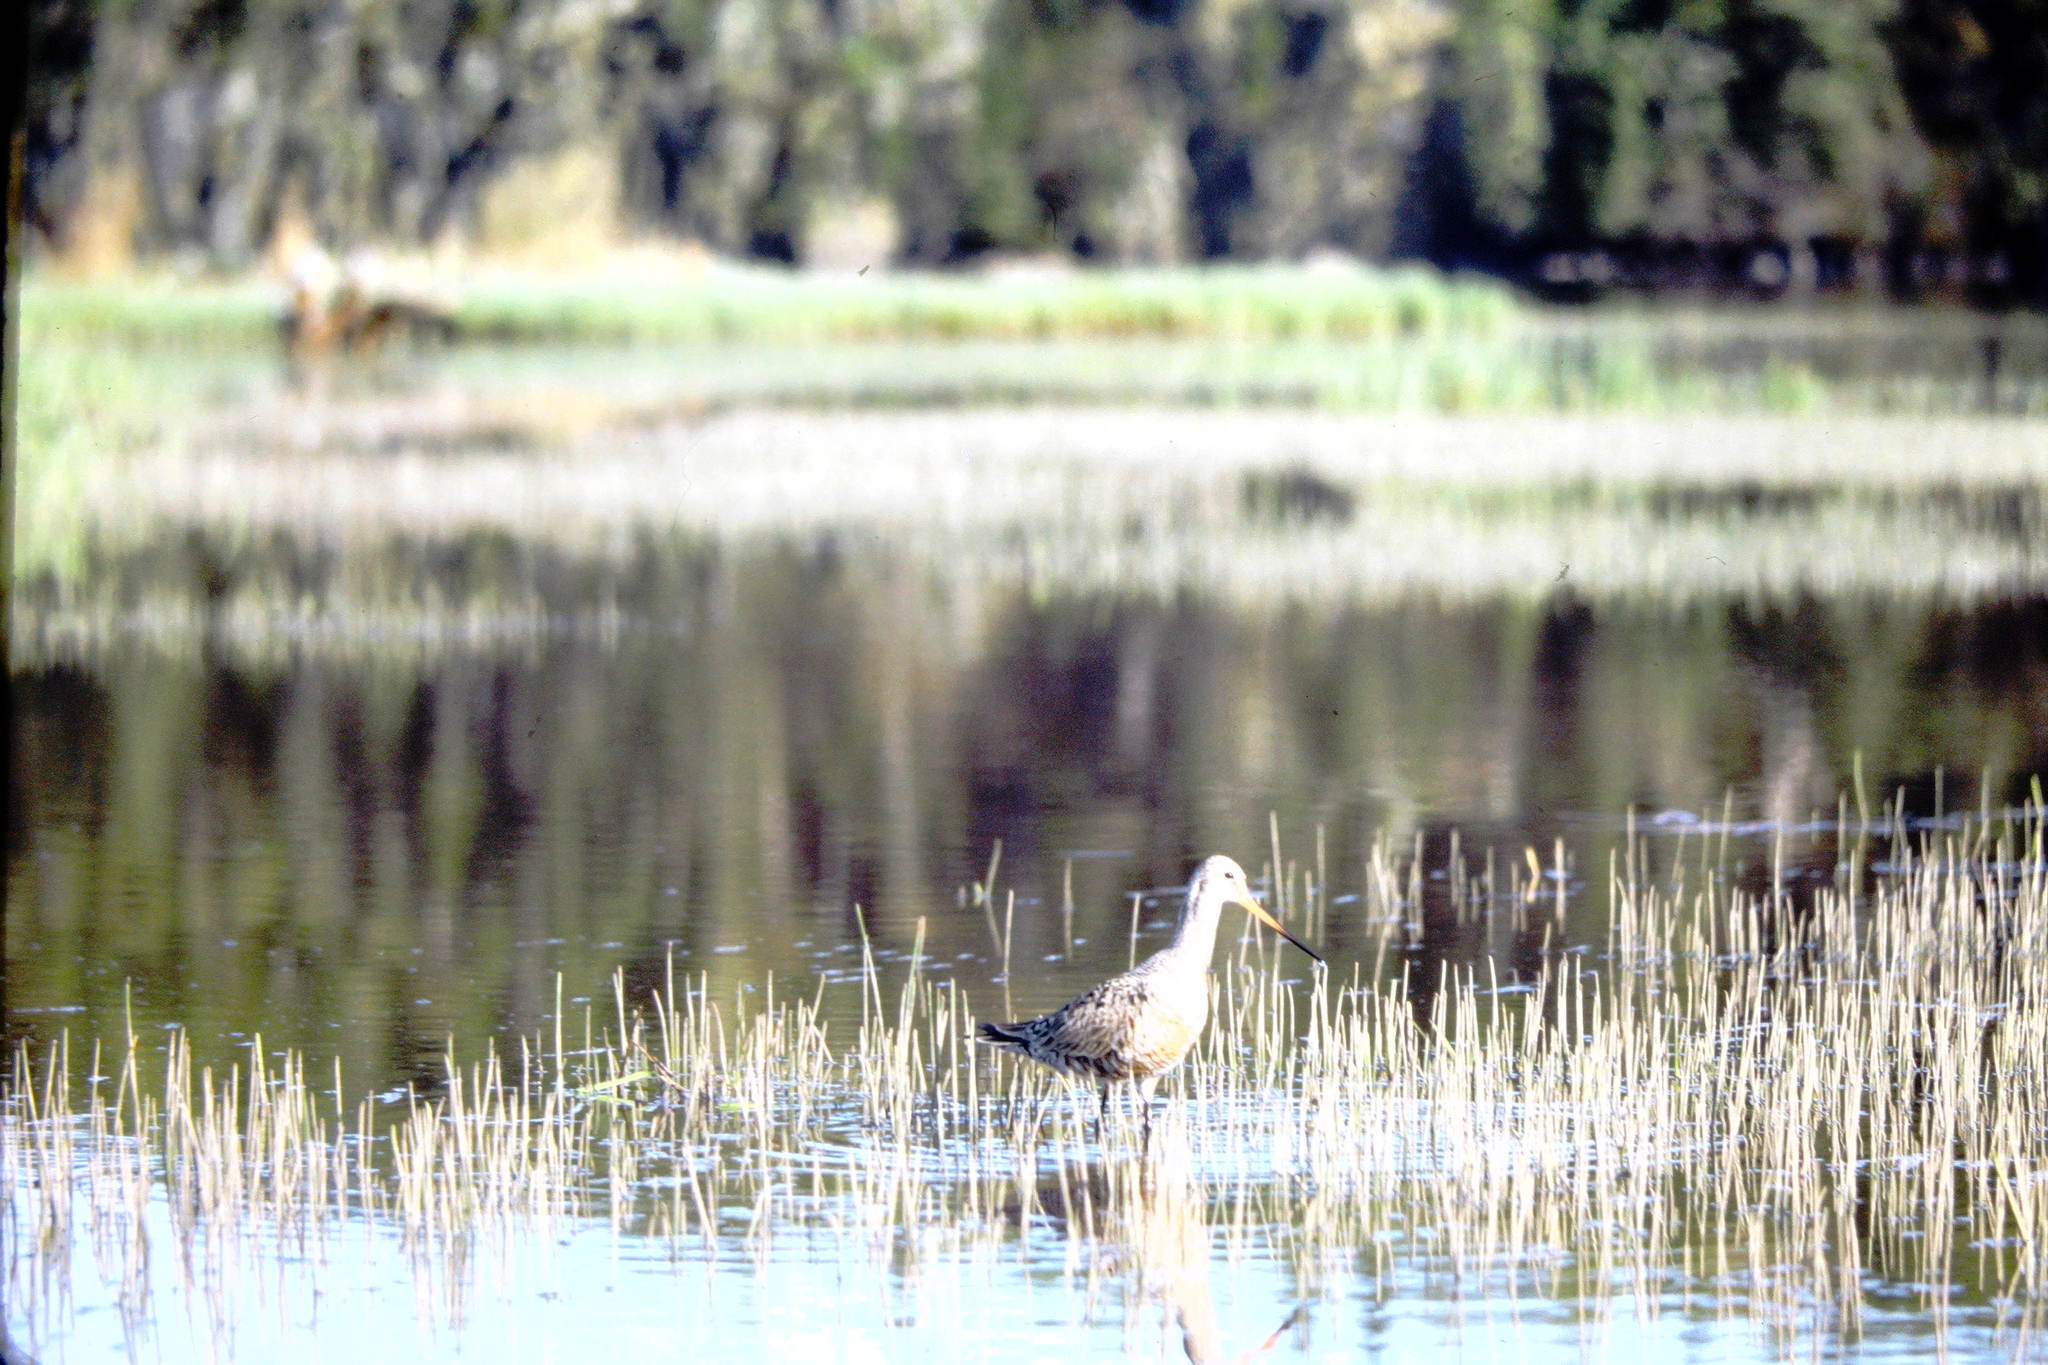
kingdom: Animalia
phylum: Chordata
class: Aves
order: Charadriiformes
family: Scolopacidae
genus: Limosa
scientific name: Limosa haemastica
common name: Hudsonian godwit
